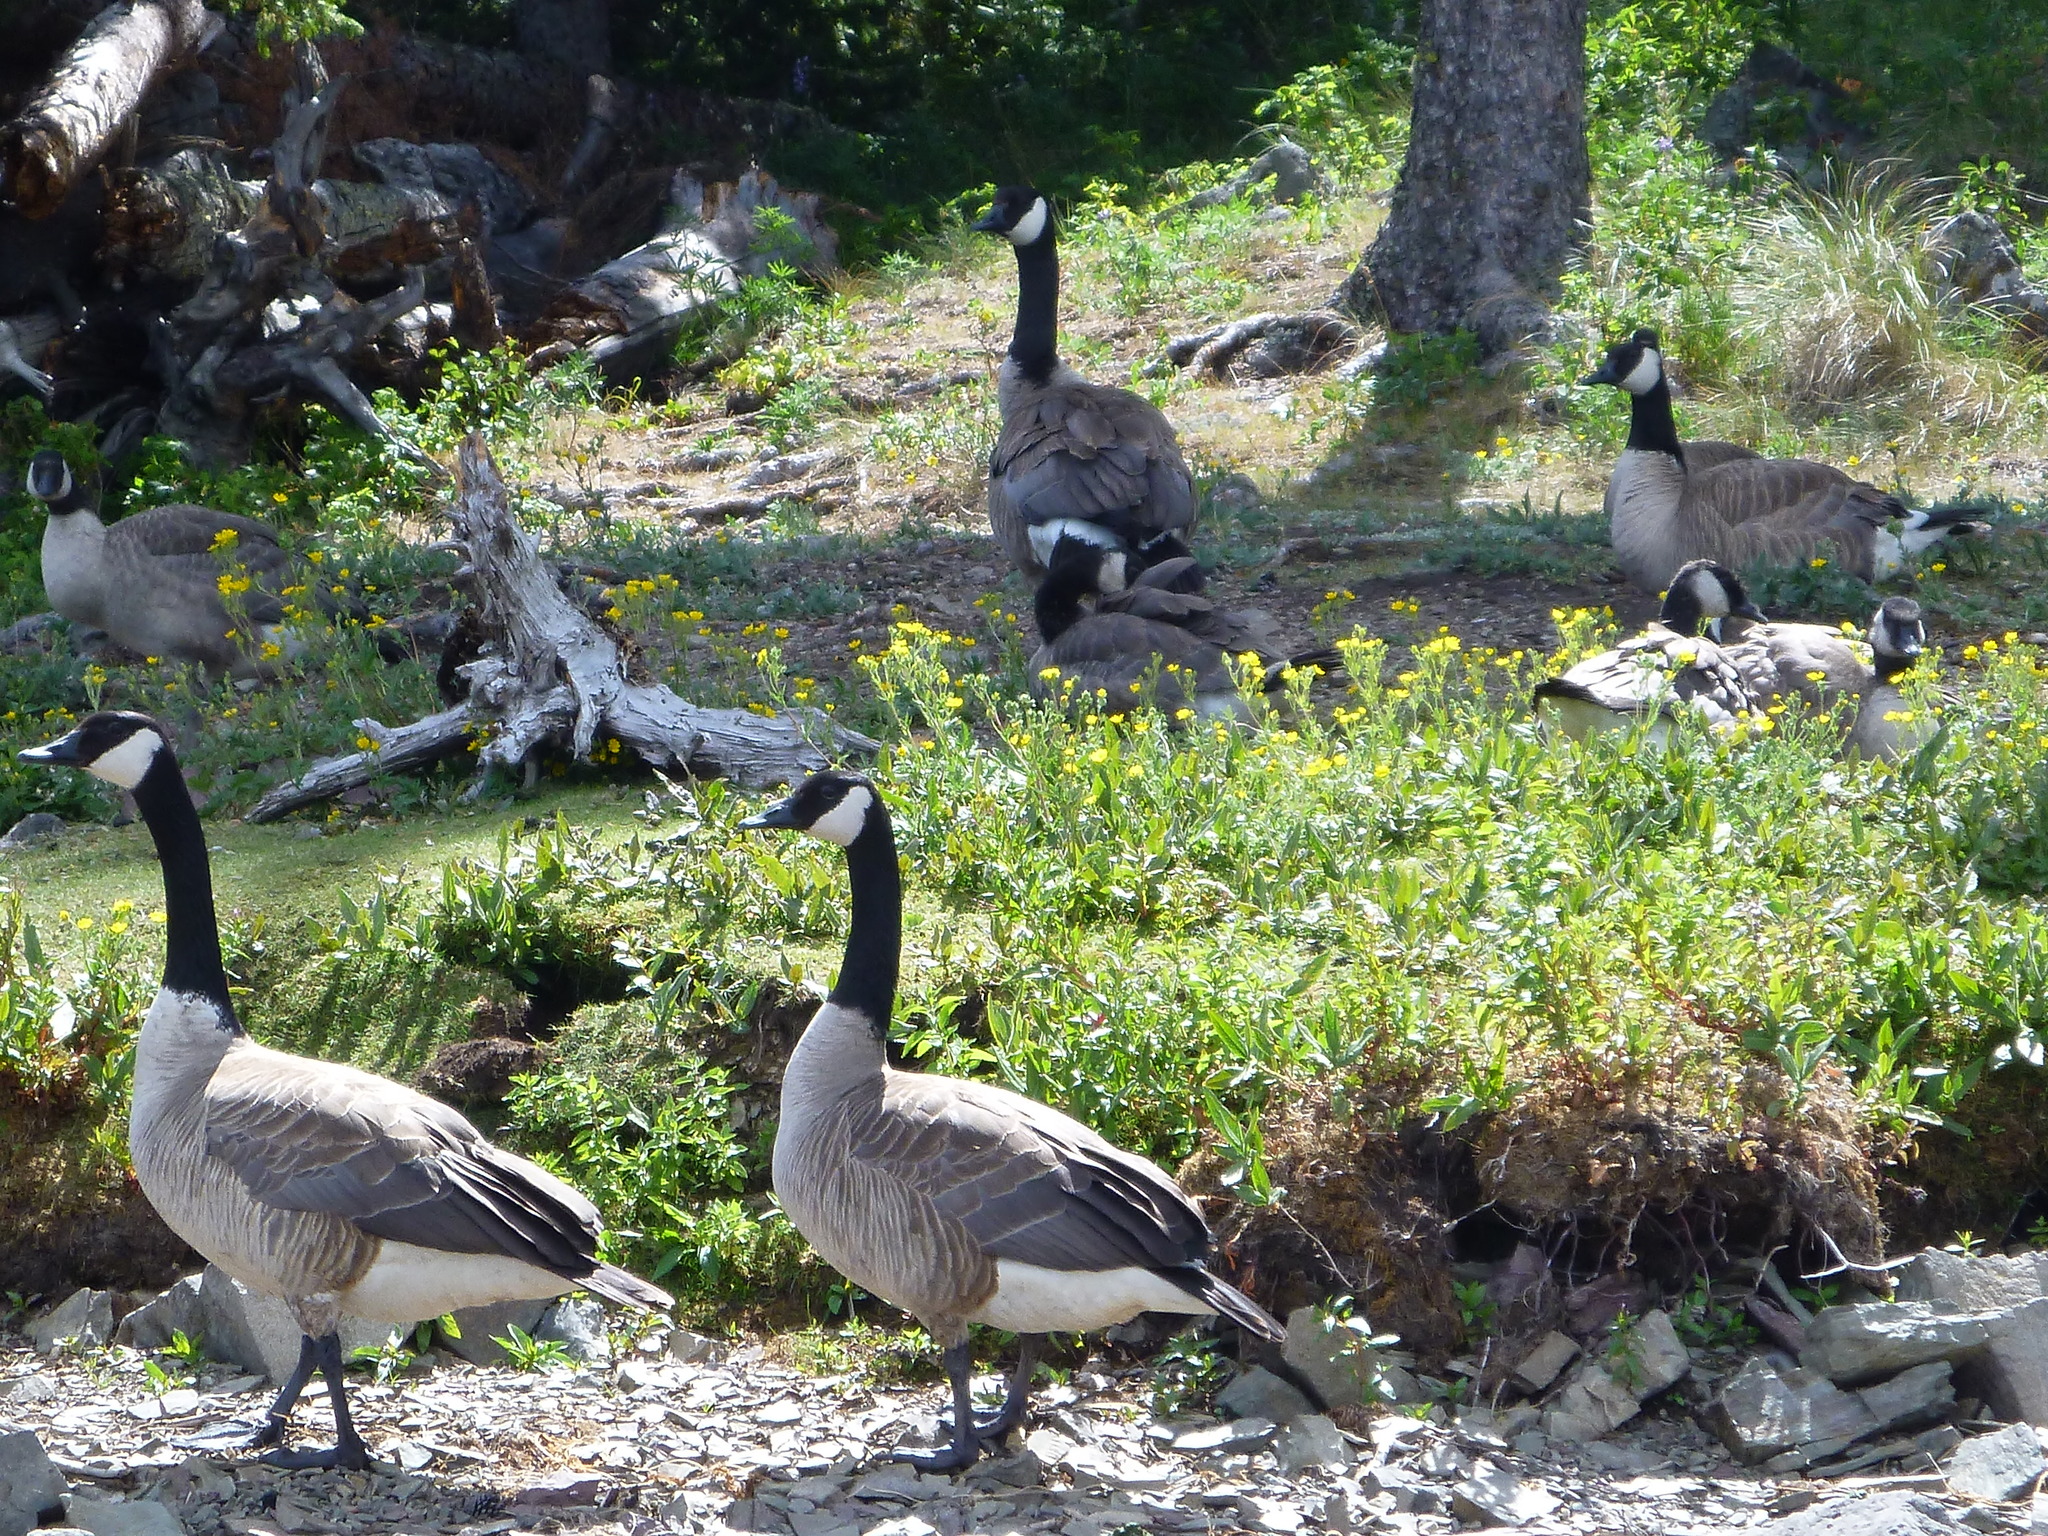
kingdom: Animalia
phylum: Chordata
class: Aves
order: Anseriformes
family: Anatidae
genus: Branta
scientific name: Branta canadensis
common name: Canada goose
